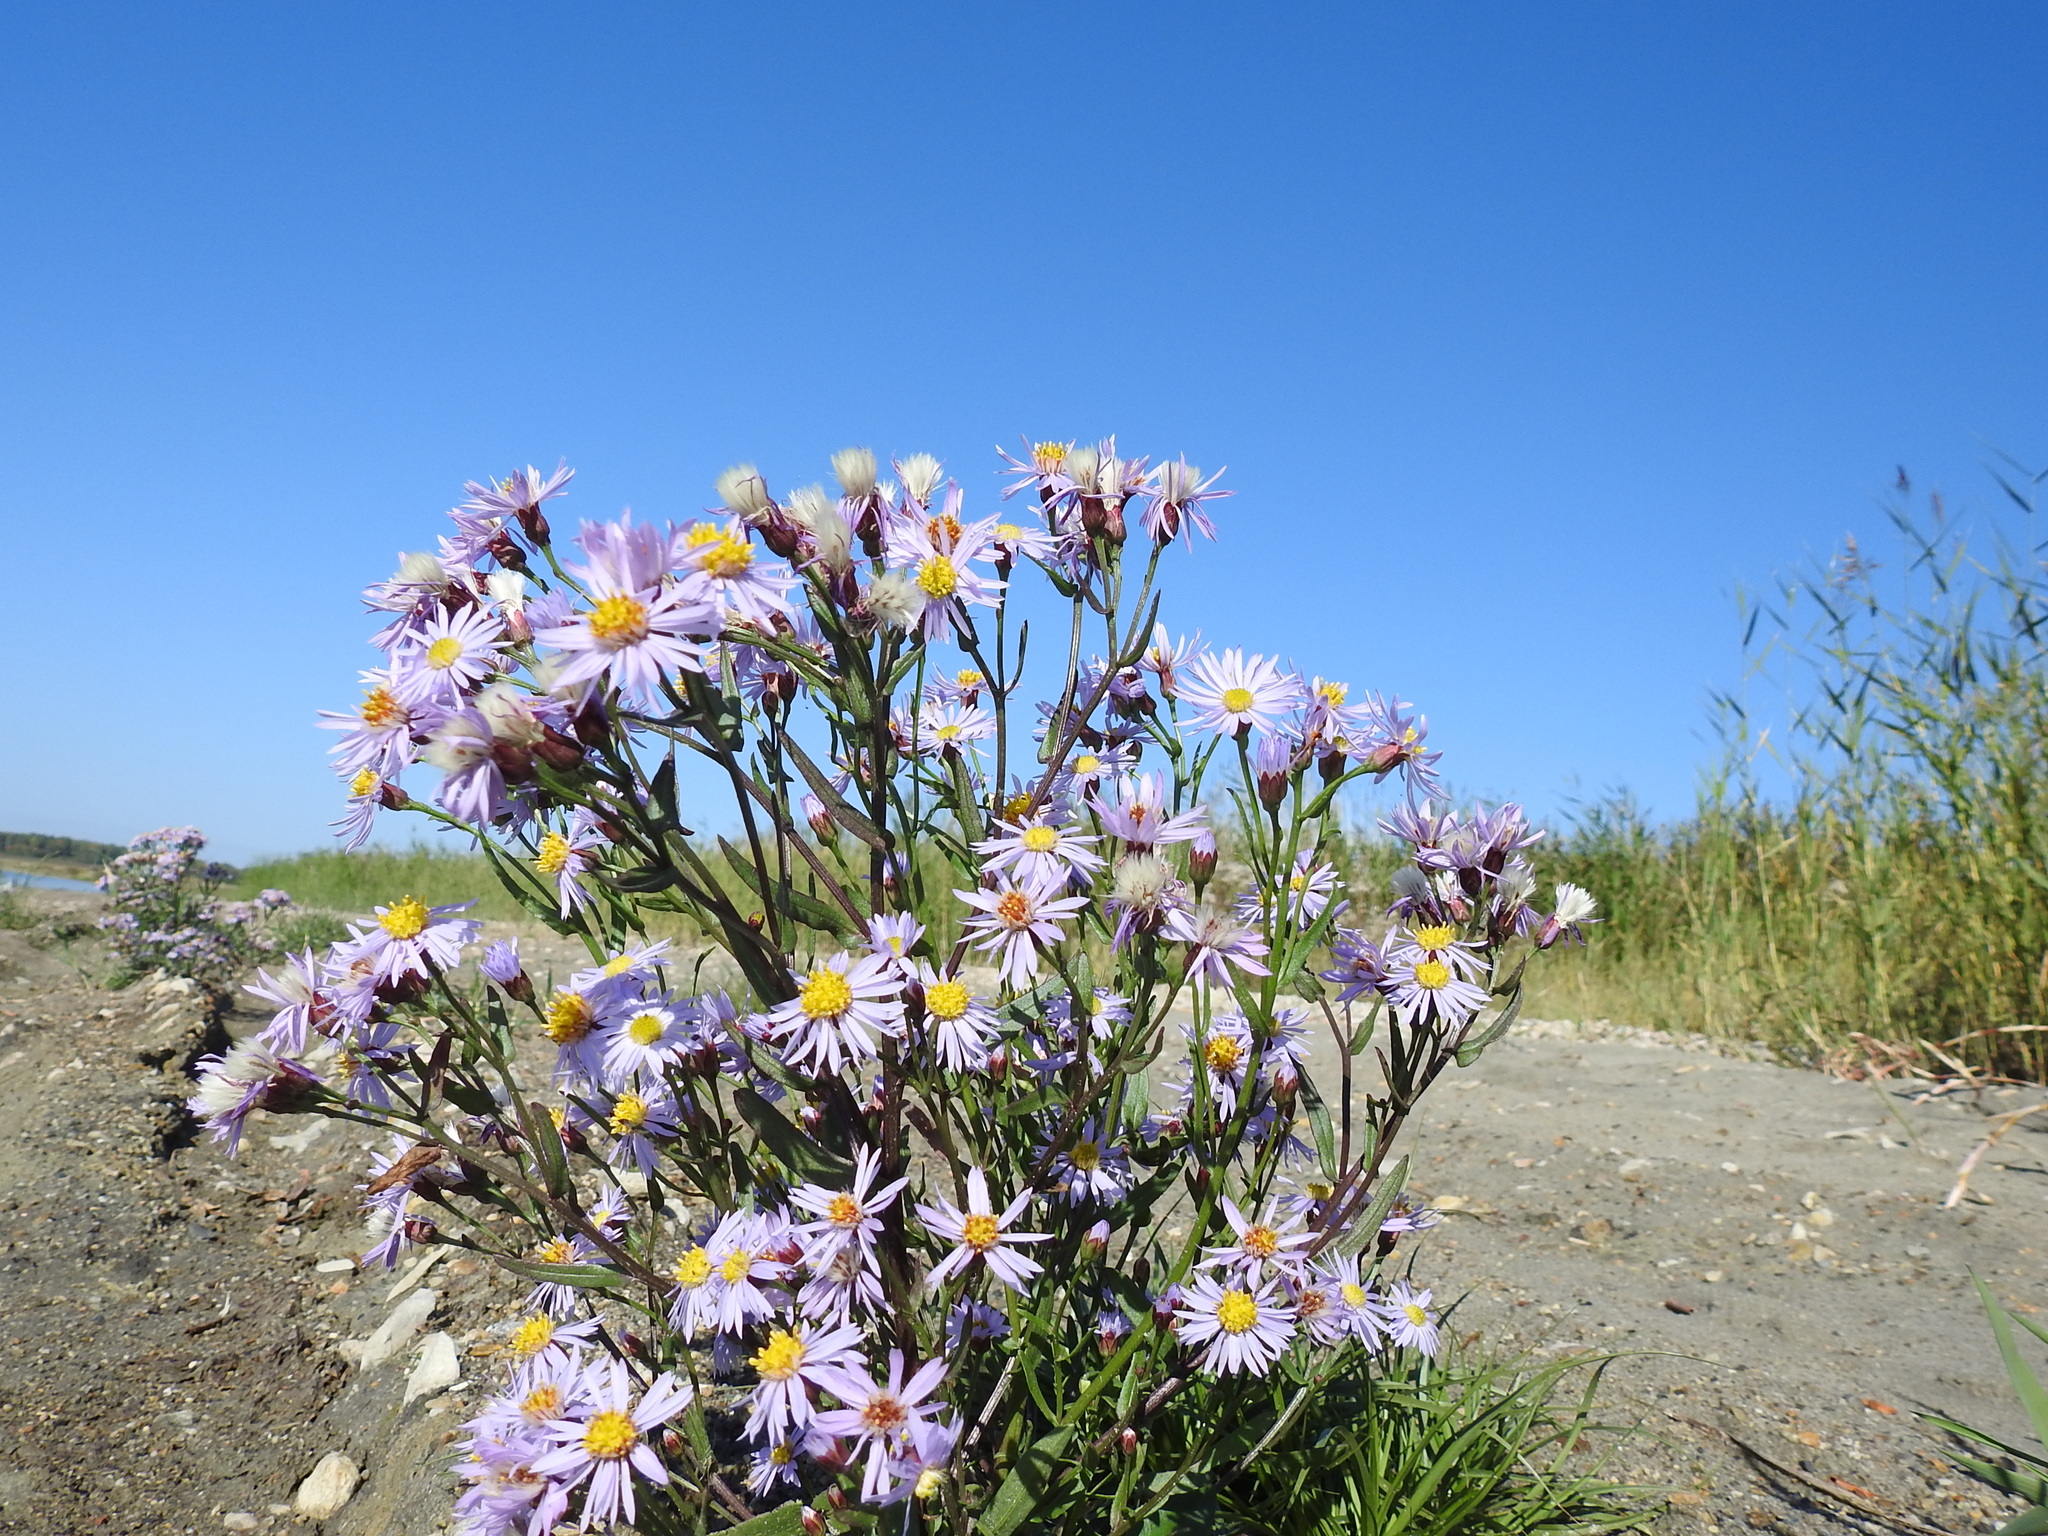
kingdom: Plantae
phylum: Tracheophyta
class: Magnoliopsida
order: Asterales
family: Asteraceae
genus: Tripolium
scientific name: Tripolium pannonicum
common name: Sea aster
